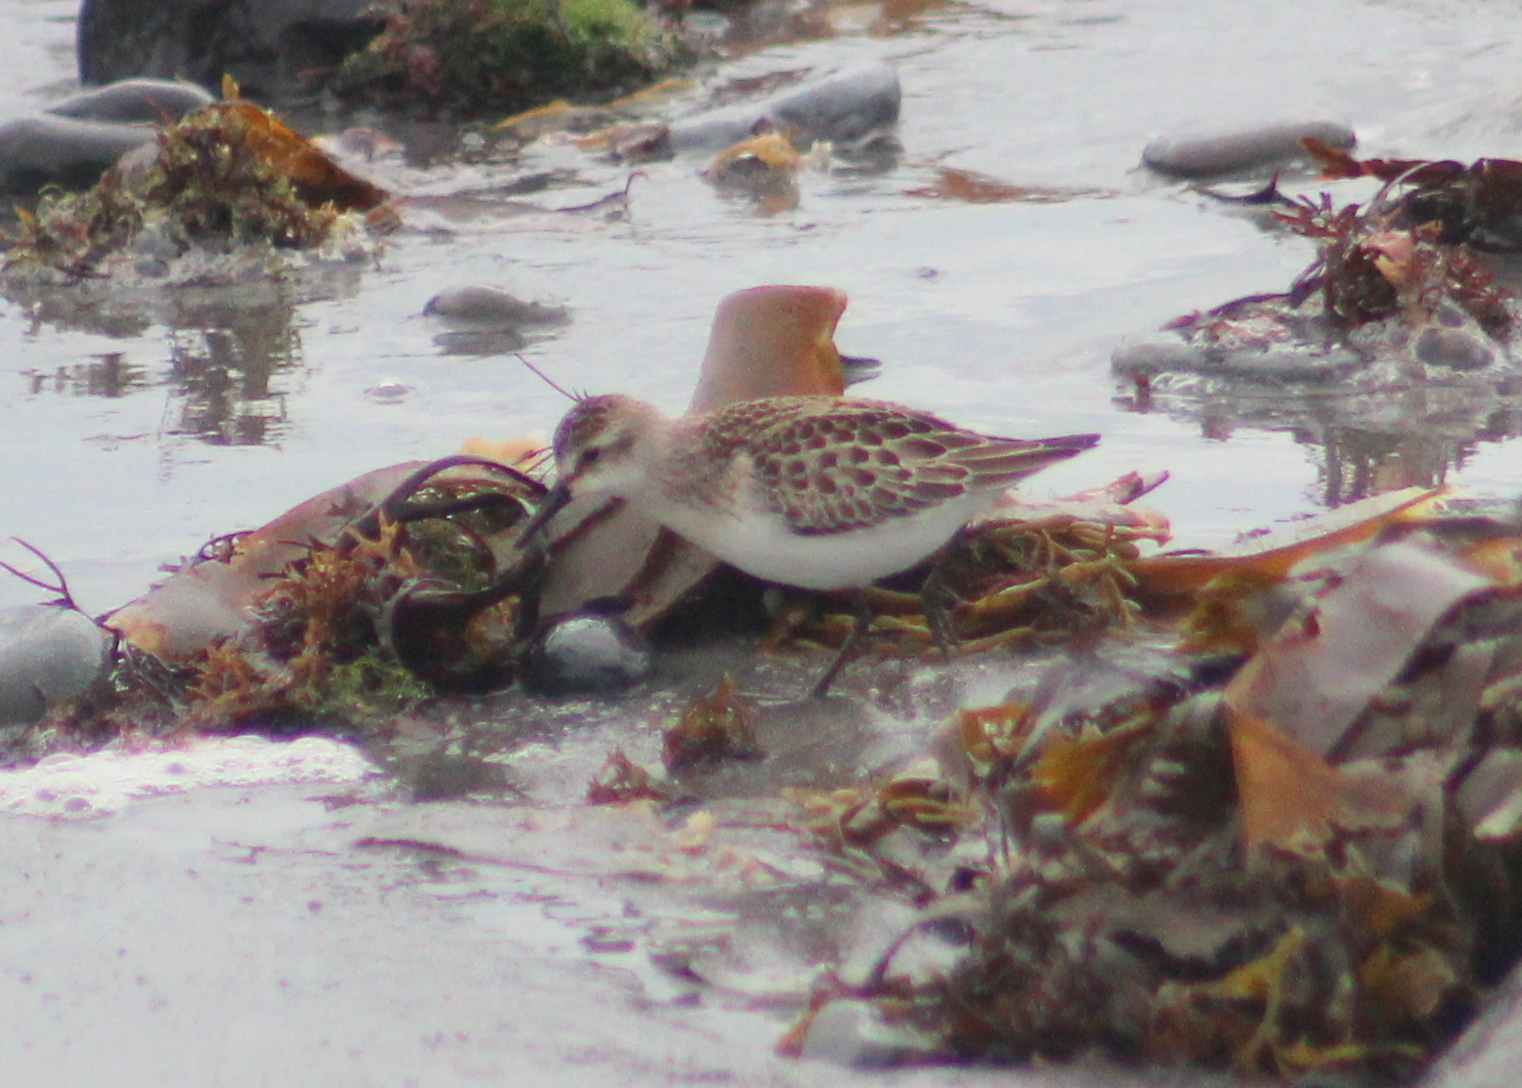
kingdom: Animalia
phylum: Chordata
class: Aves
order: Charadriiformes
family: Scolopacidae
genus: Calidris
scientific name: Calidris pusilla
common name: Semipalmated sandpiper
